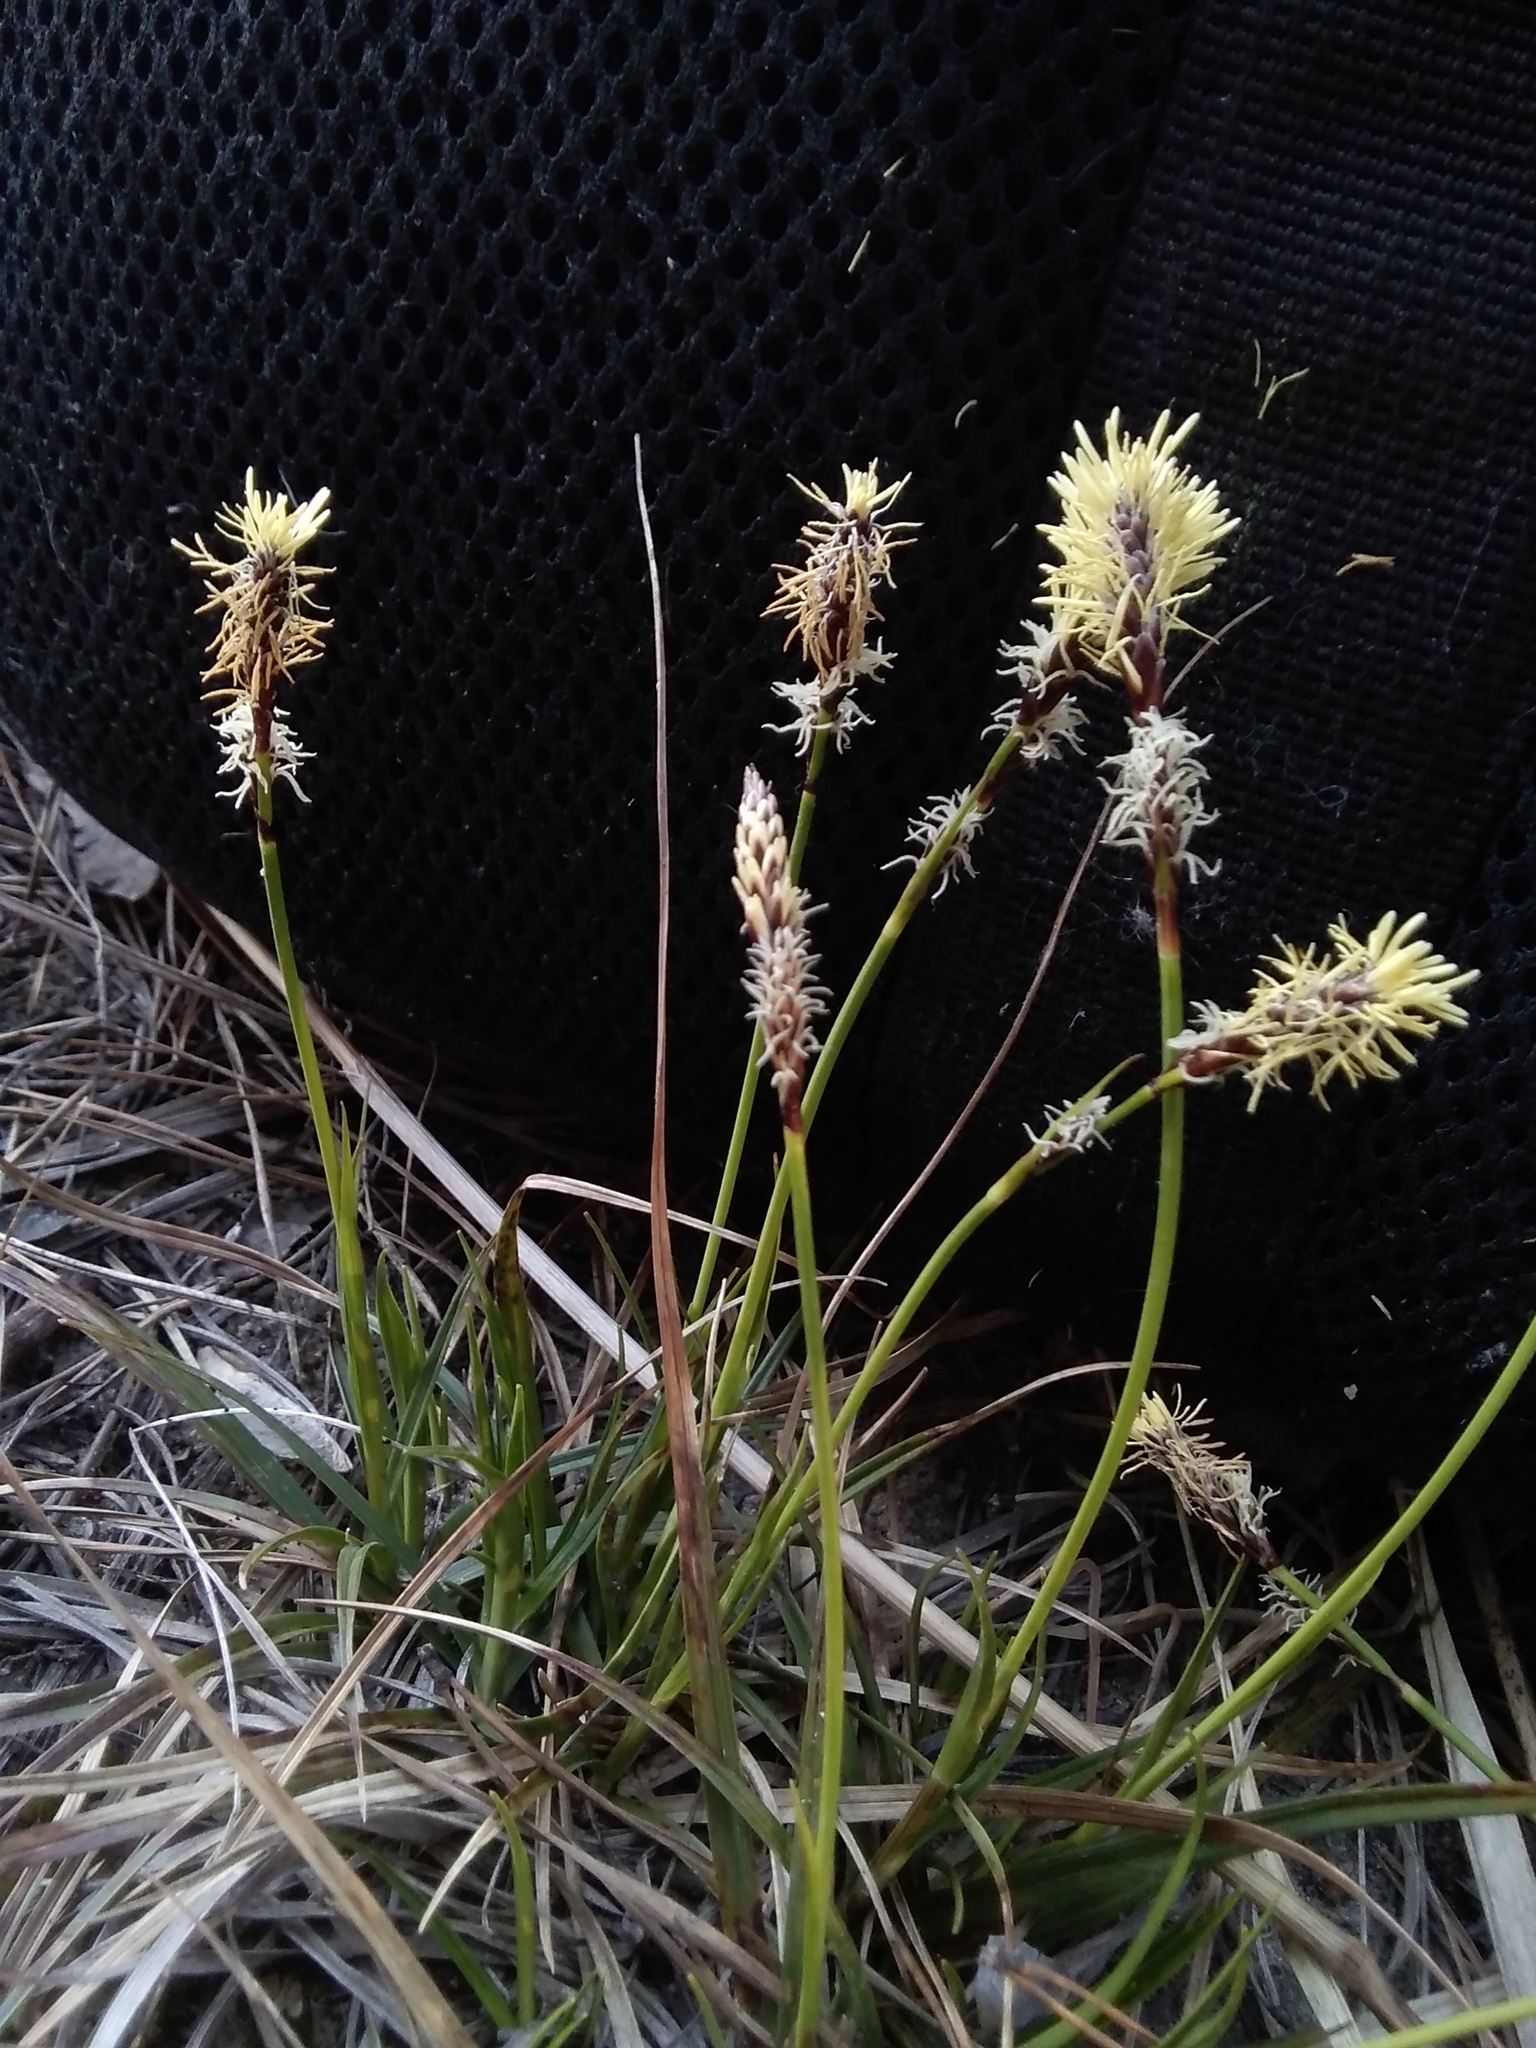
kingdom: Plantae
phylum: Tracheophyta
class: Liliopsida
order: Poales
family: Cyperaceae
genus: Carex
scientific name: Carex ericetorum
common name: Rare spring-sedge
